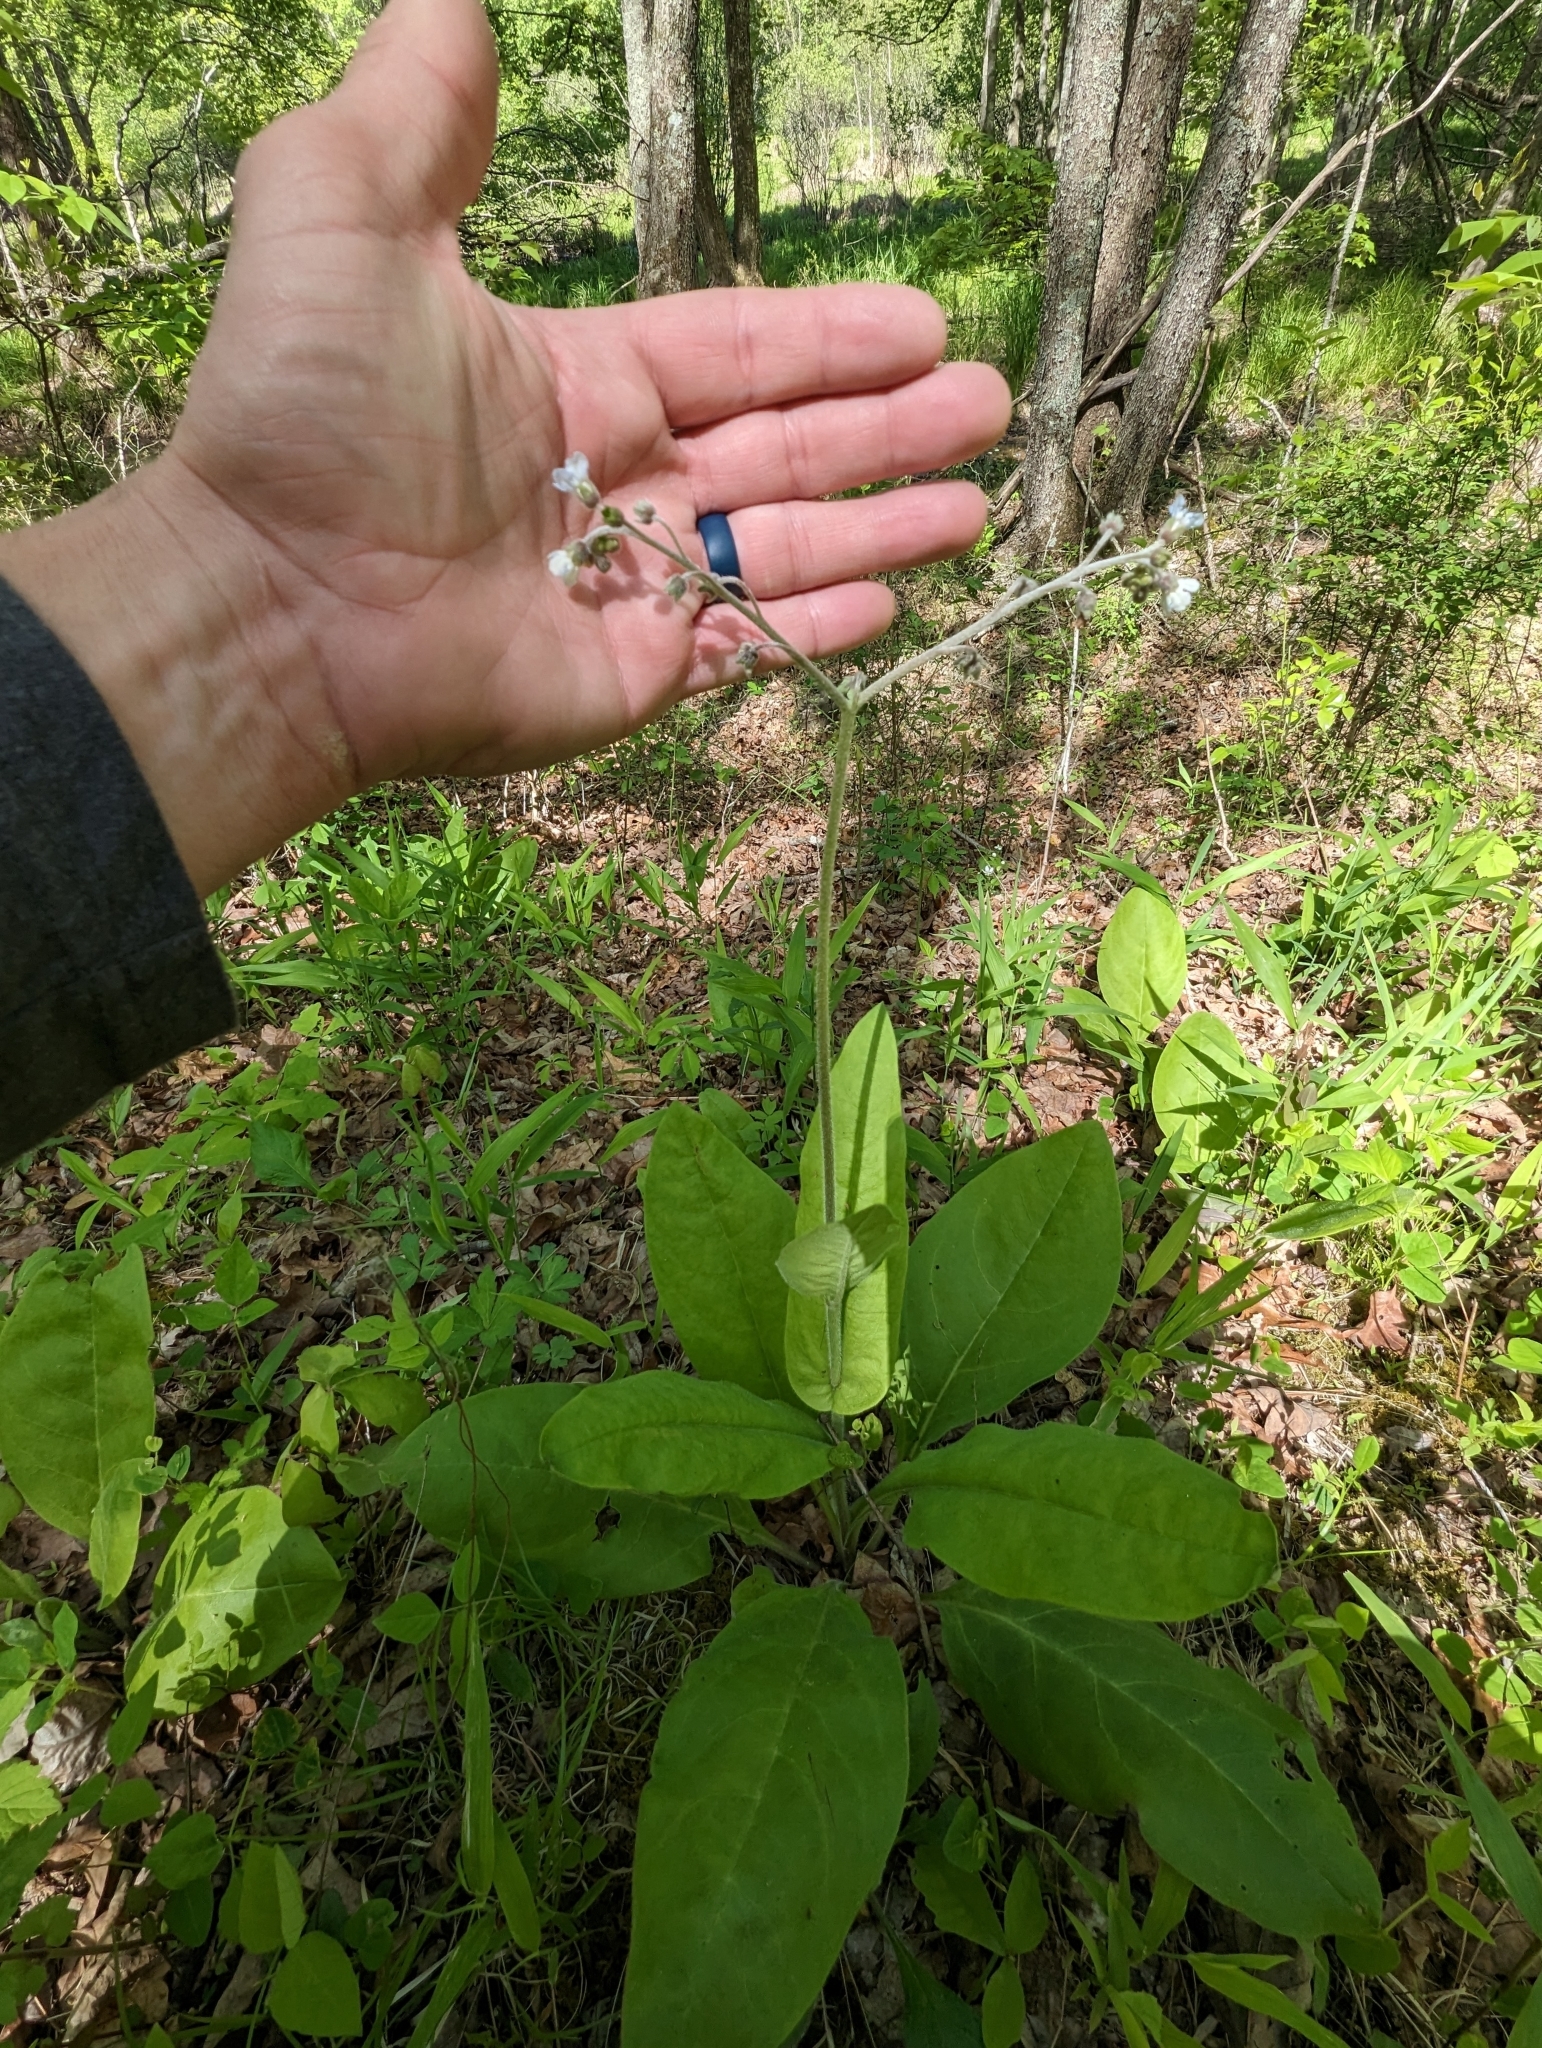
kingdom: Plantae
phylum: Tracheophyta
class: Magnoliopsida
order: Boraginales
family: Boraginaceae
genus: Andersonglossum
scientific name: Andersonglossum virginianum
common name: Wild comfrey
